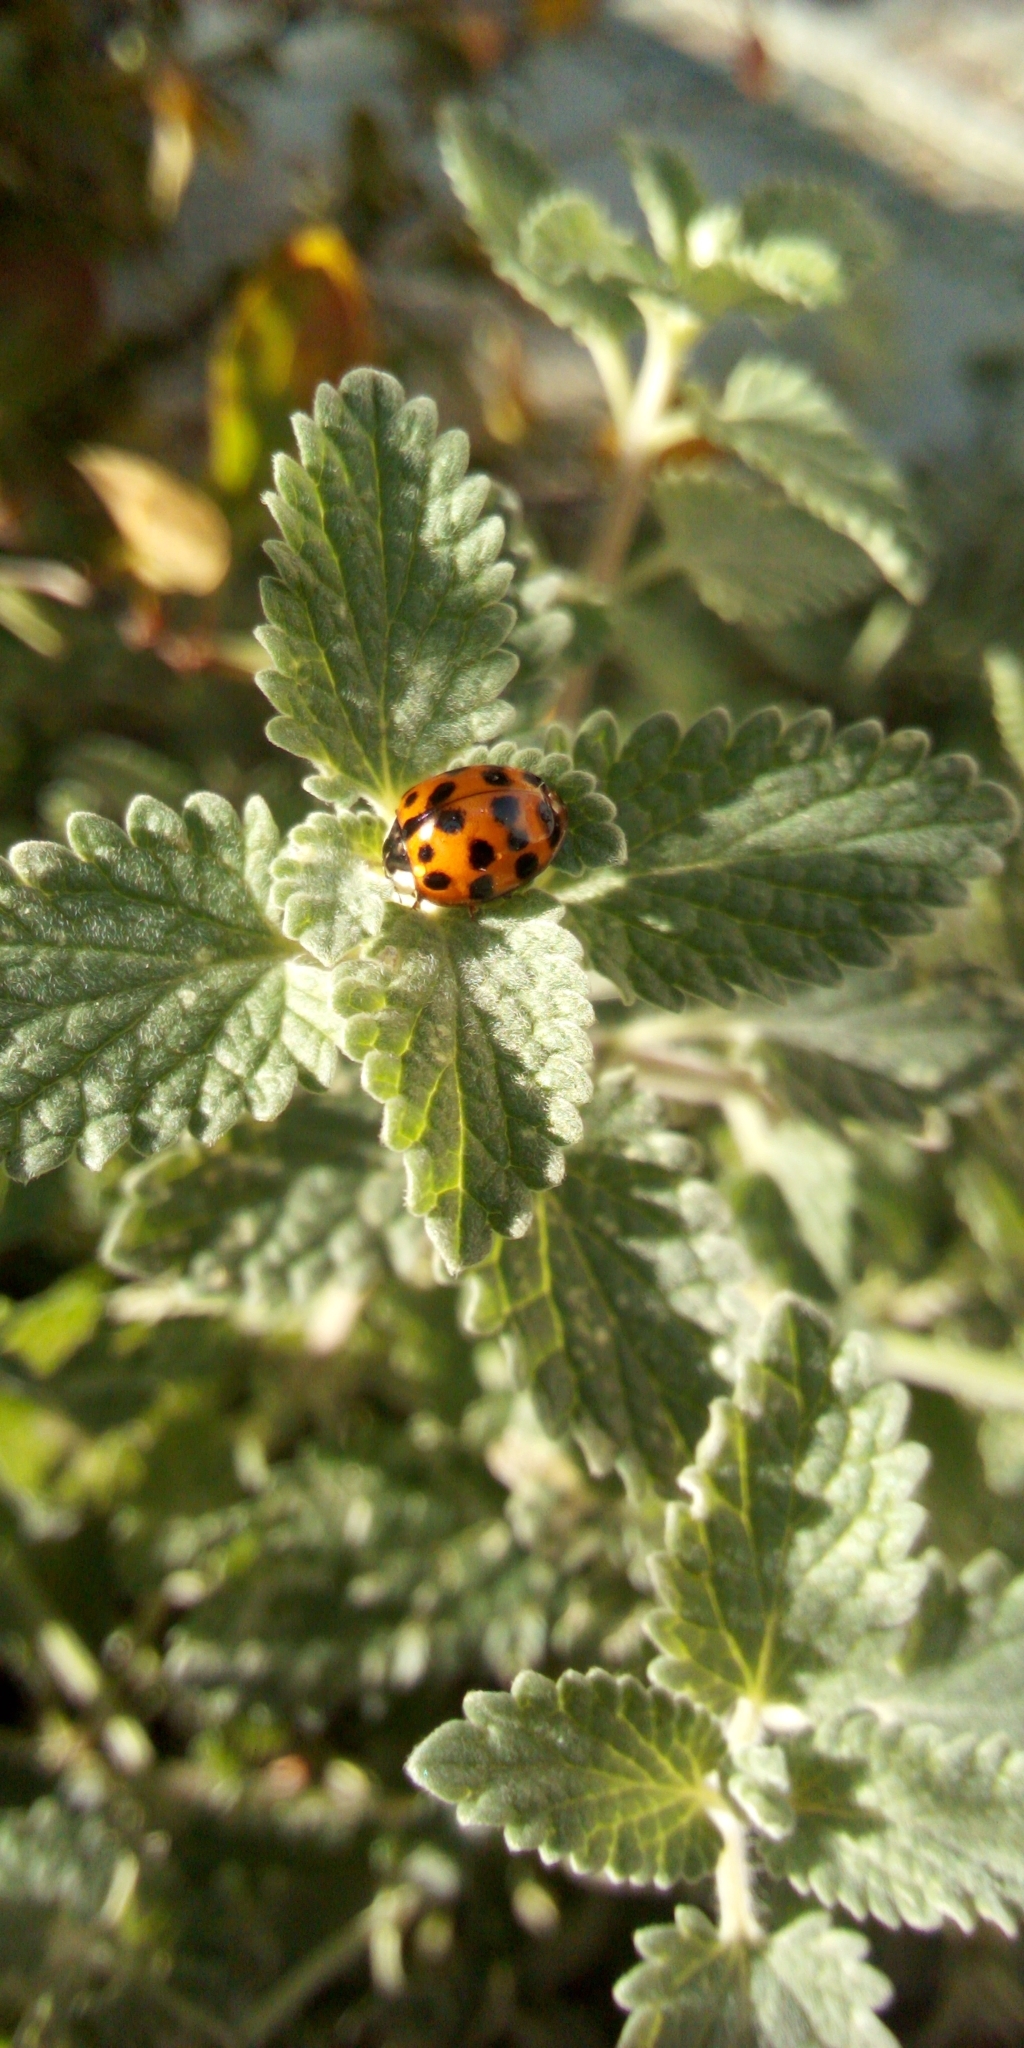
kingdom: Animalia
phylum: Arthropoda
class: Insecta
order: Coleoptera
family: Coccinellidae
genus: Harmonia
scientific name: Harmonia axyridis
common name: Harlequin ladybird
